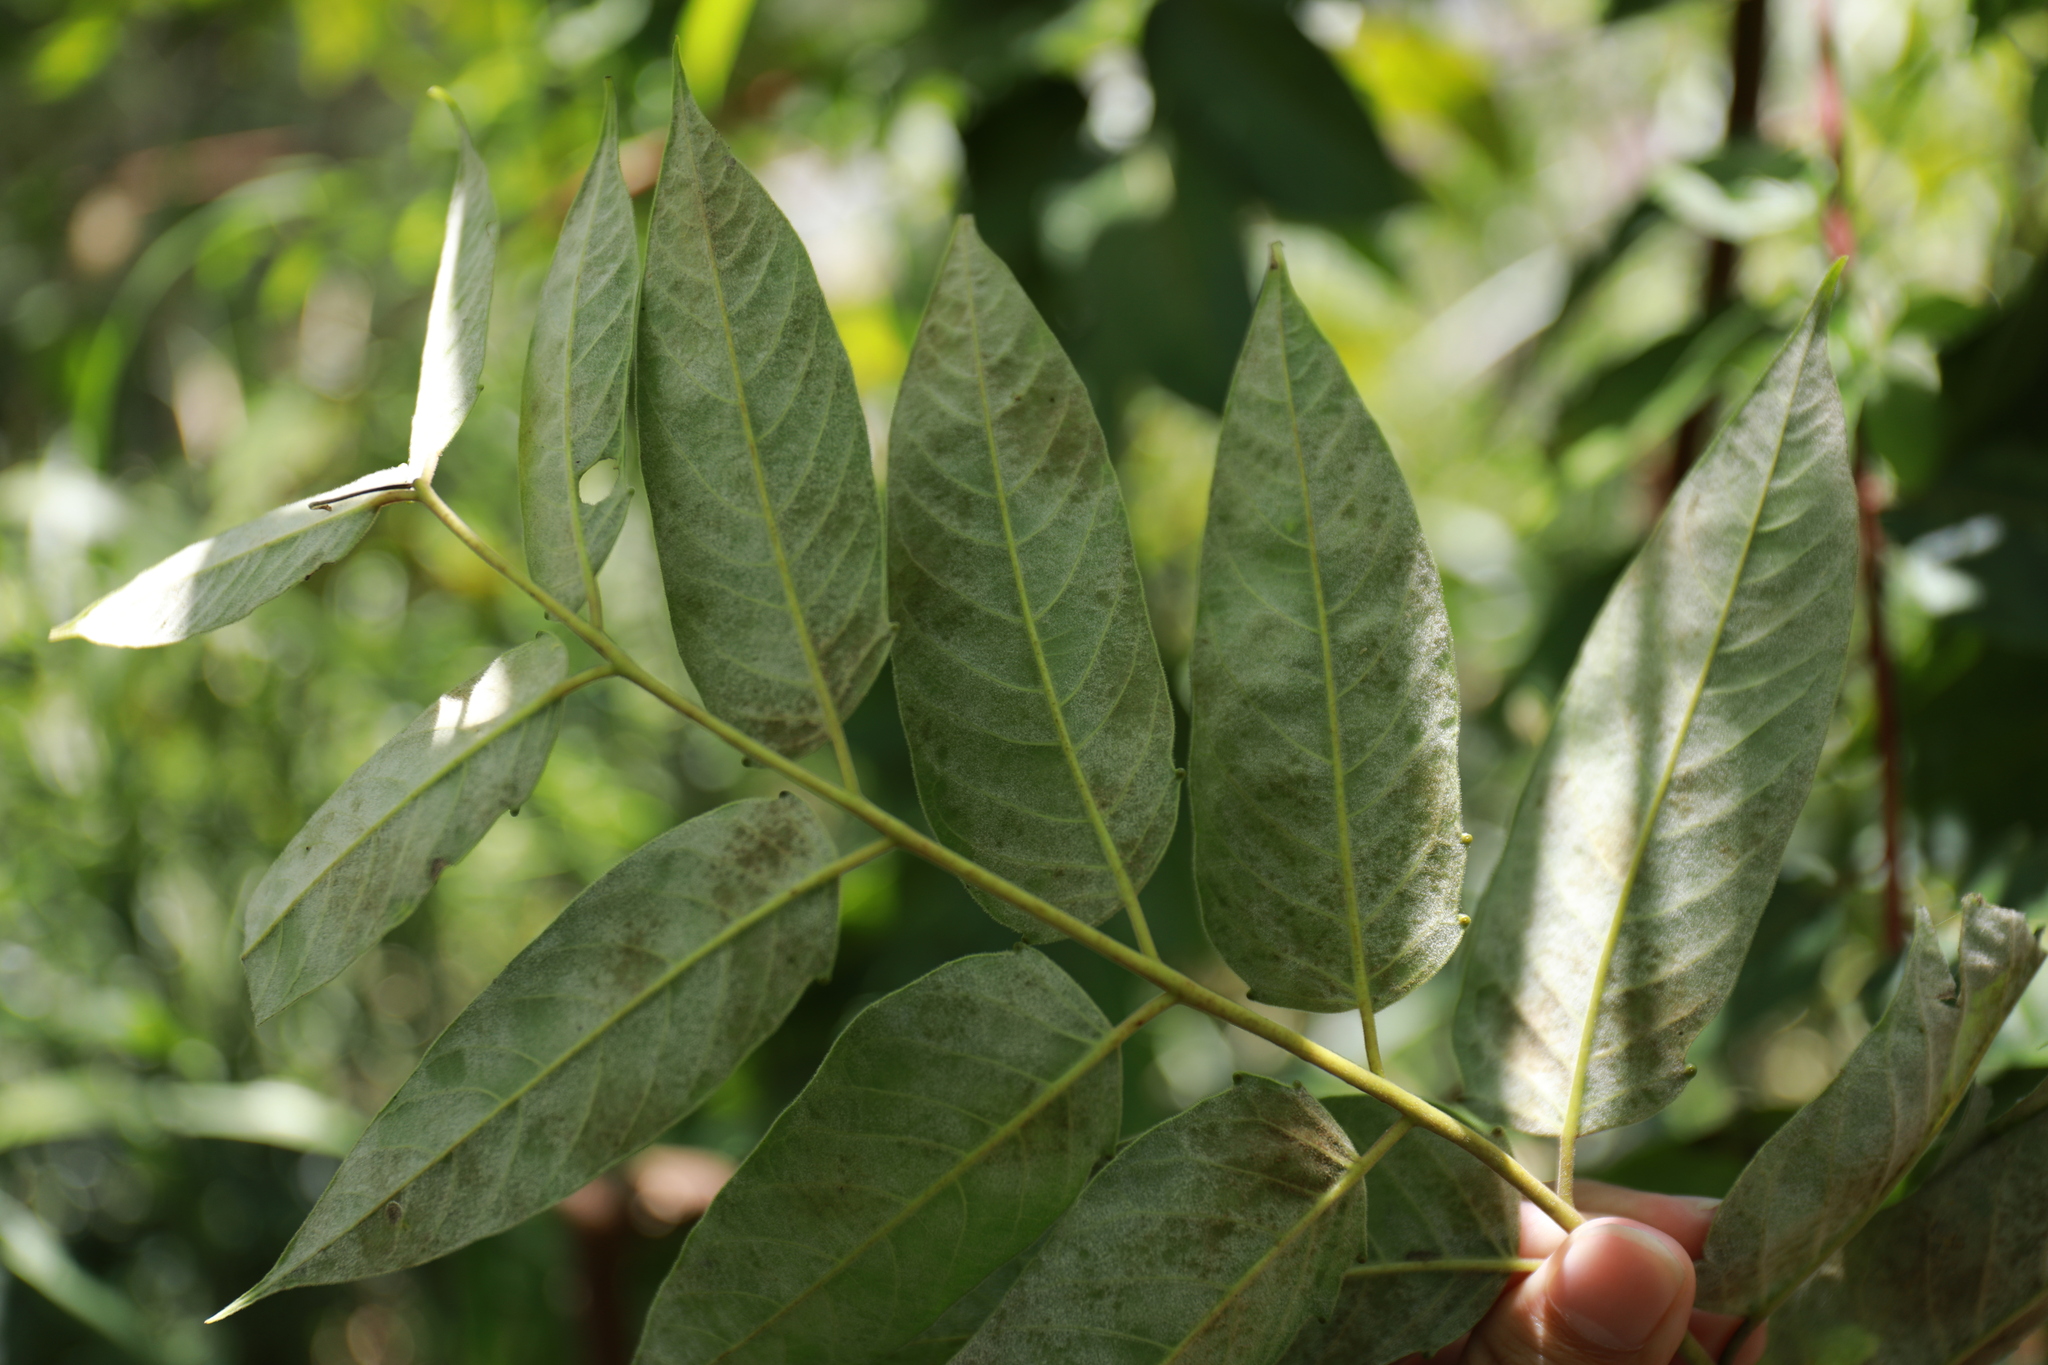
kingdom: Plantae
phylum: Tracheophyta
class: Magnoliopsida
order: Sapindales
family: Simaroubaceae
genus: Ailanthus
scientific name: Ailanthus altissima
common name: Tree-of-heaven
